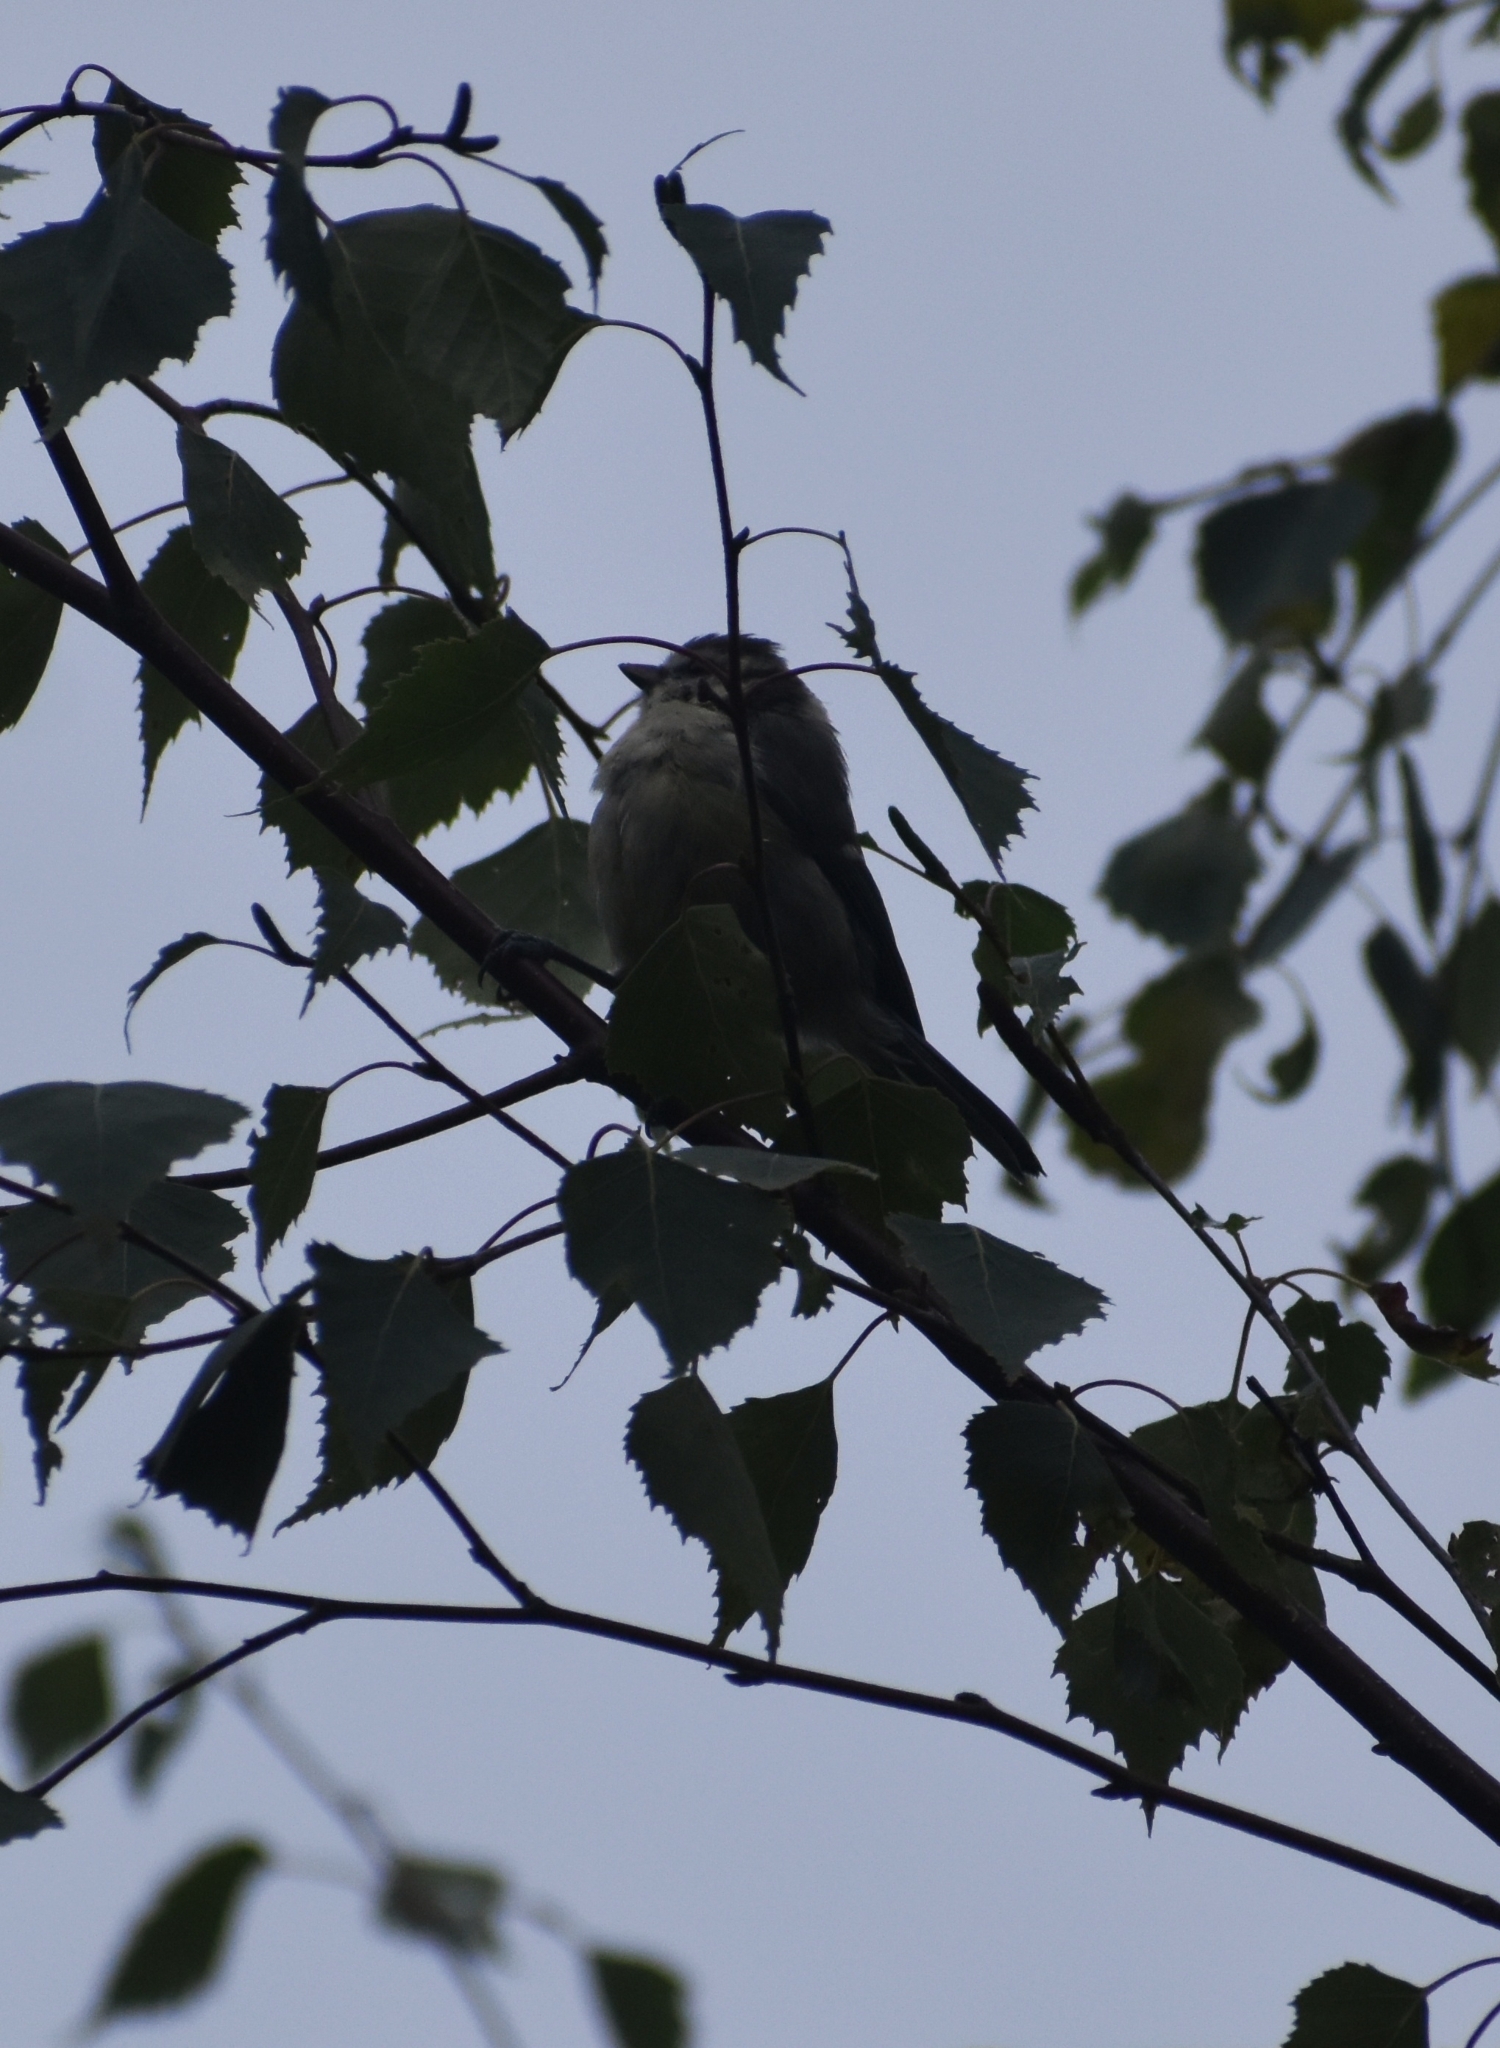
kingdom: Animalia
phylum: Chordata
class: Aves
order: Passeriformes
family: Paridae
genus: Cyanistes
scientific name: Cyanistes caeruleus
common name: Eurasian blue tit
